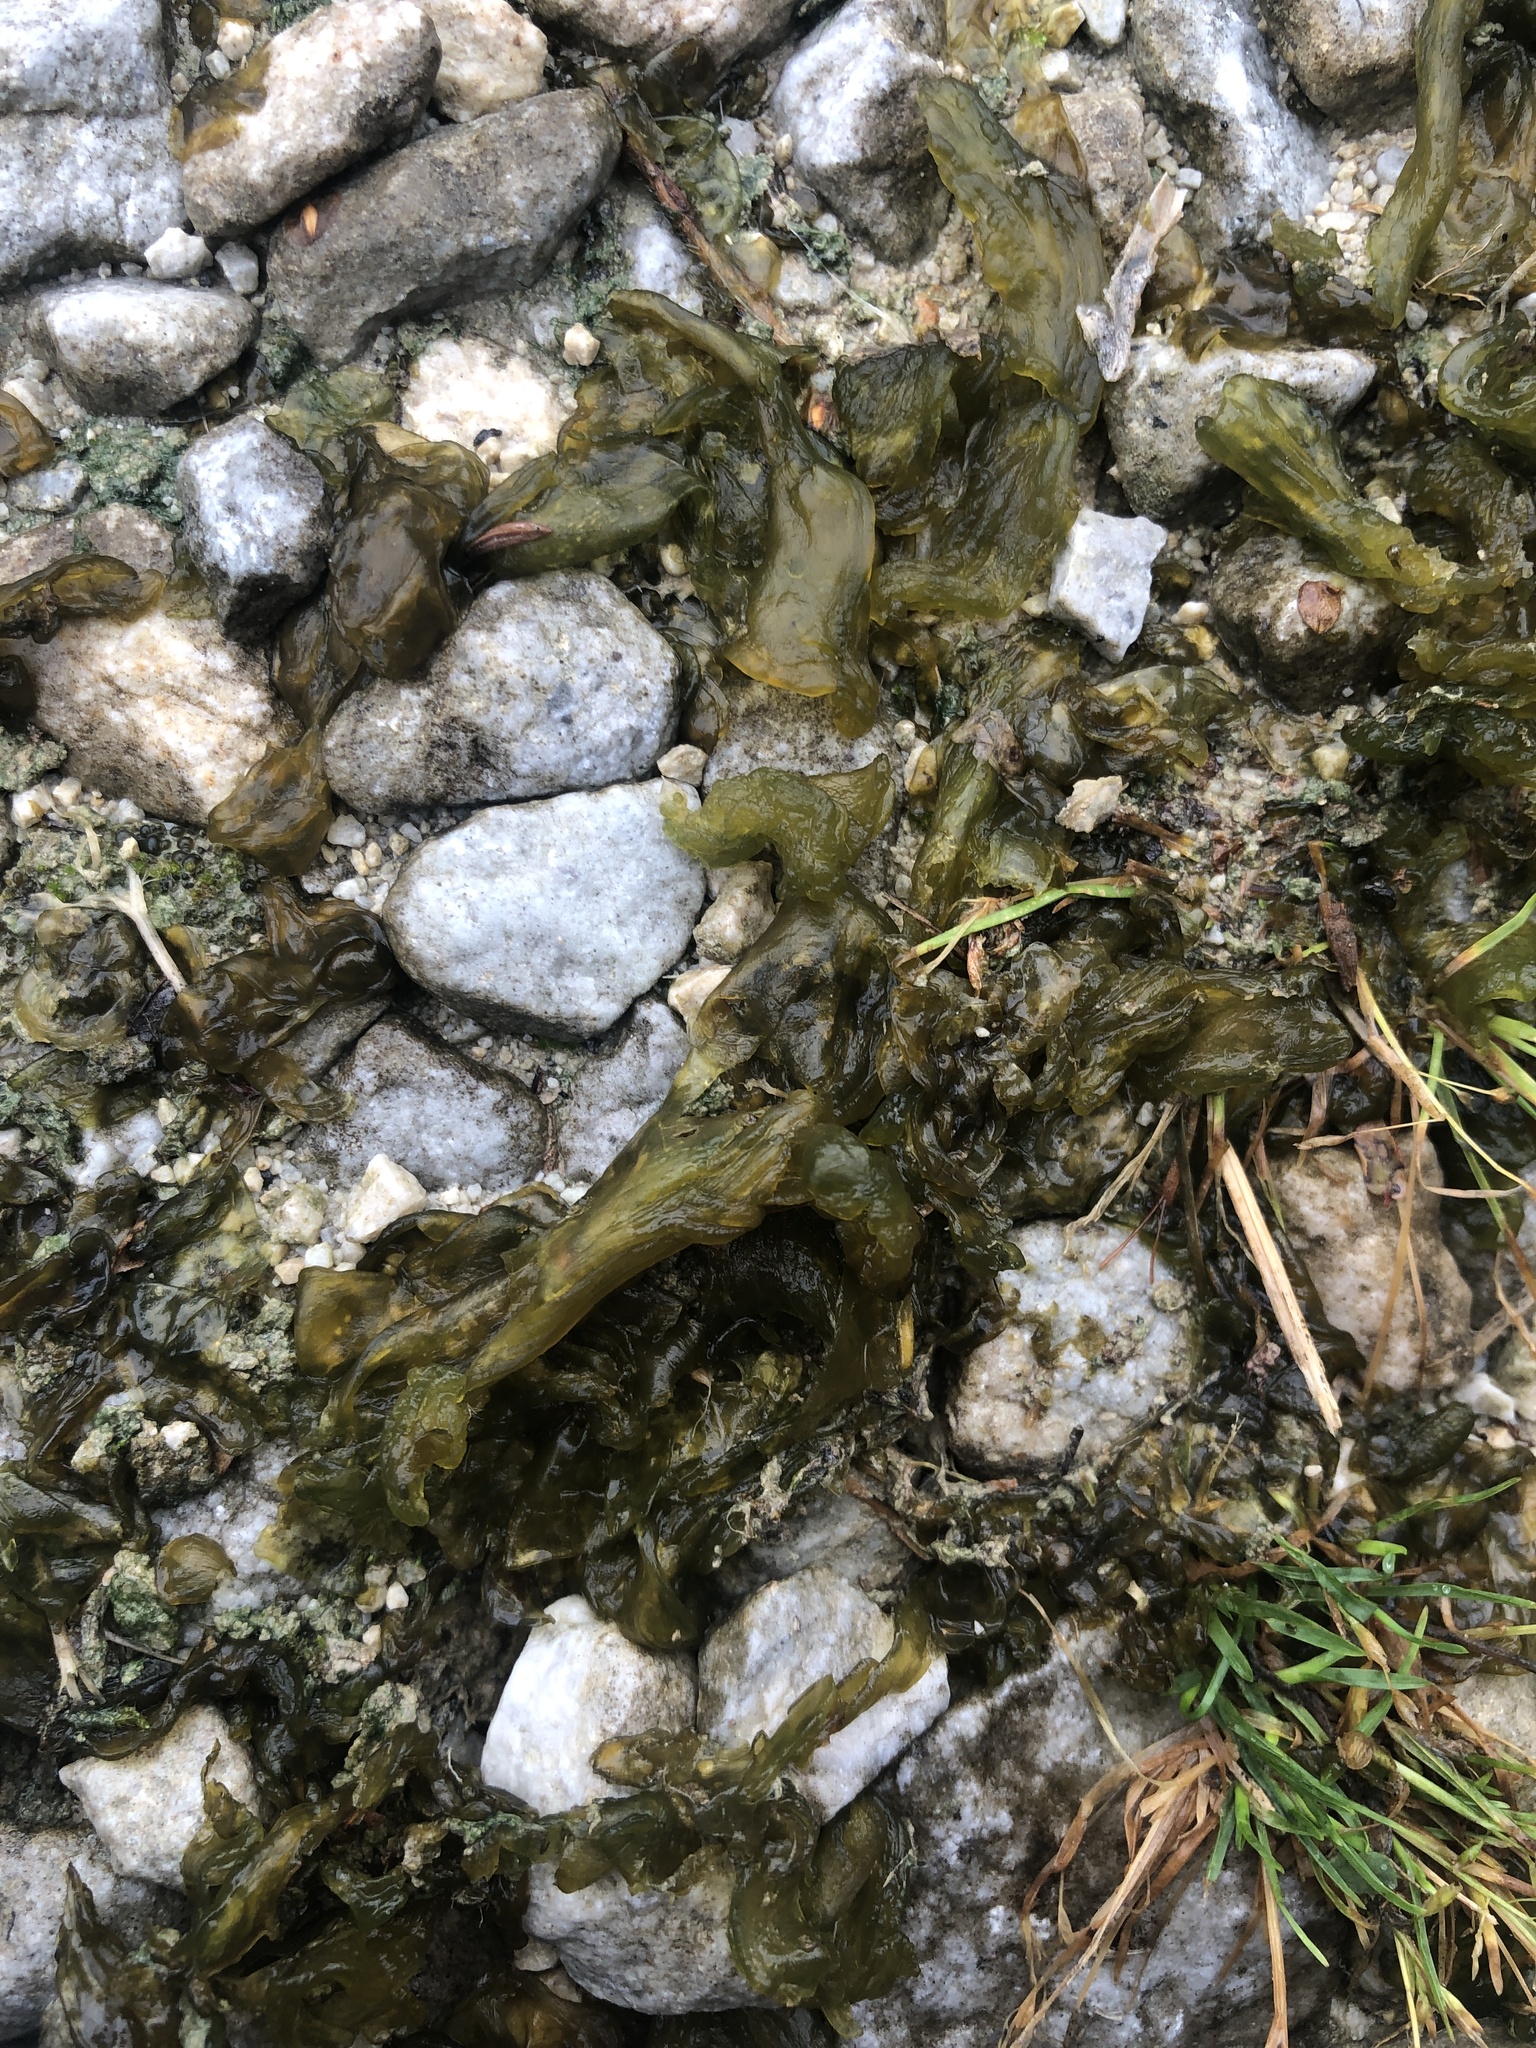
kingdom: Bacteria
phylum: Cyanobacteria
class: Cyanobacteriia
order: Cyanobacteriales
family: Nostocaceae
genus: Nostoc
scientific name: Nostoc commune
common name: Star jelly
